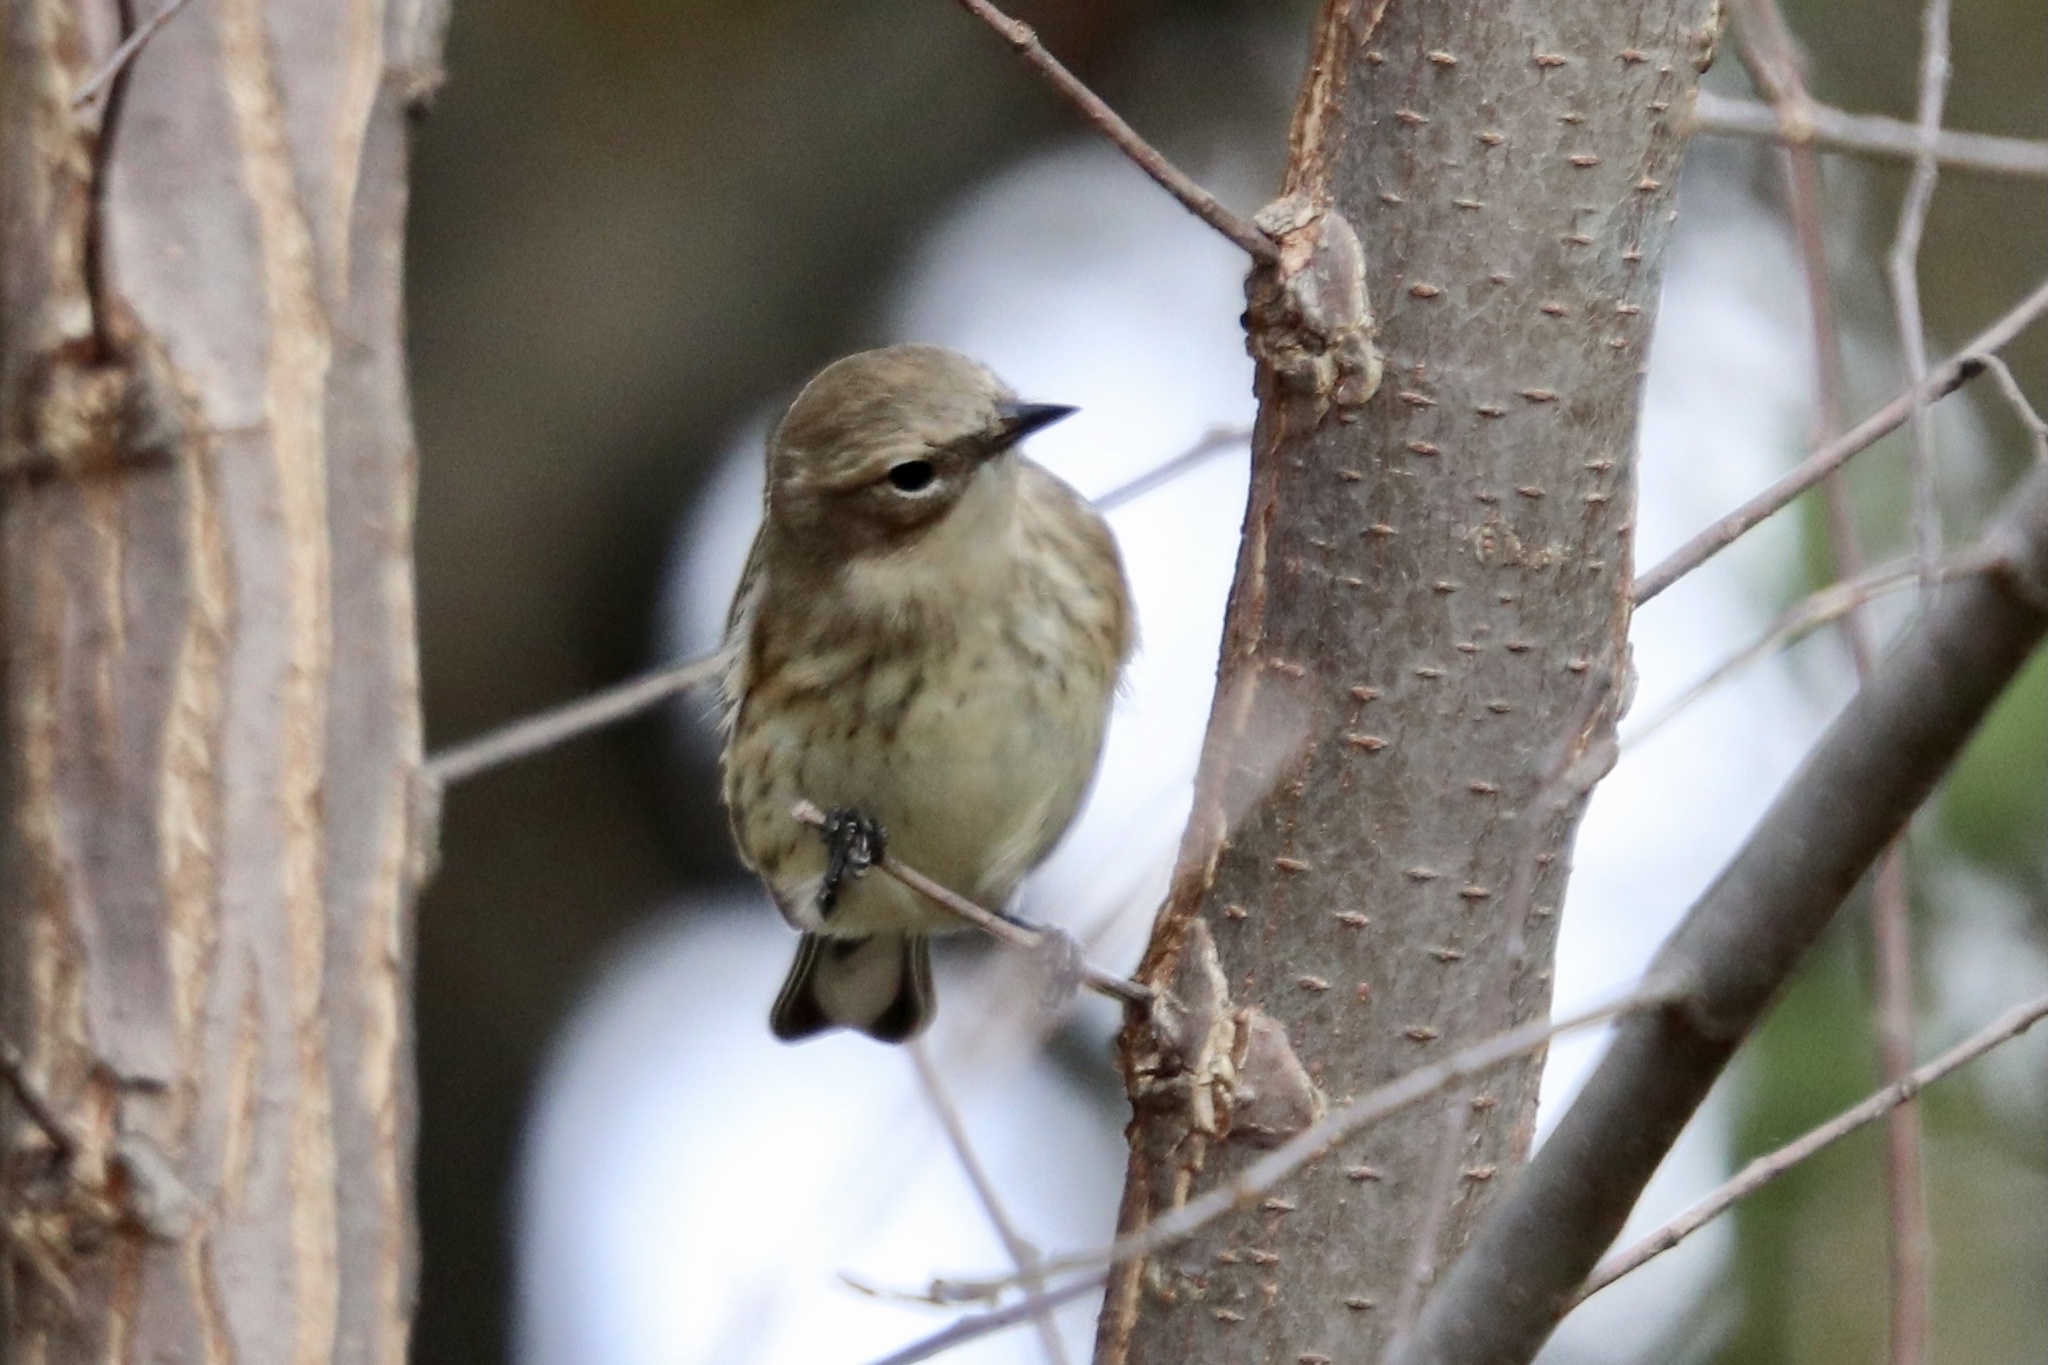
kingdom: Animalia
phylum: Chordata
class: Aves
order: Passeriformes
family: Parulidae
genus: Setophaga
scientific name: Setophaga coronata
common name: Myrtle warbler
